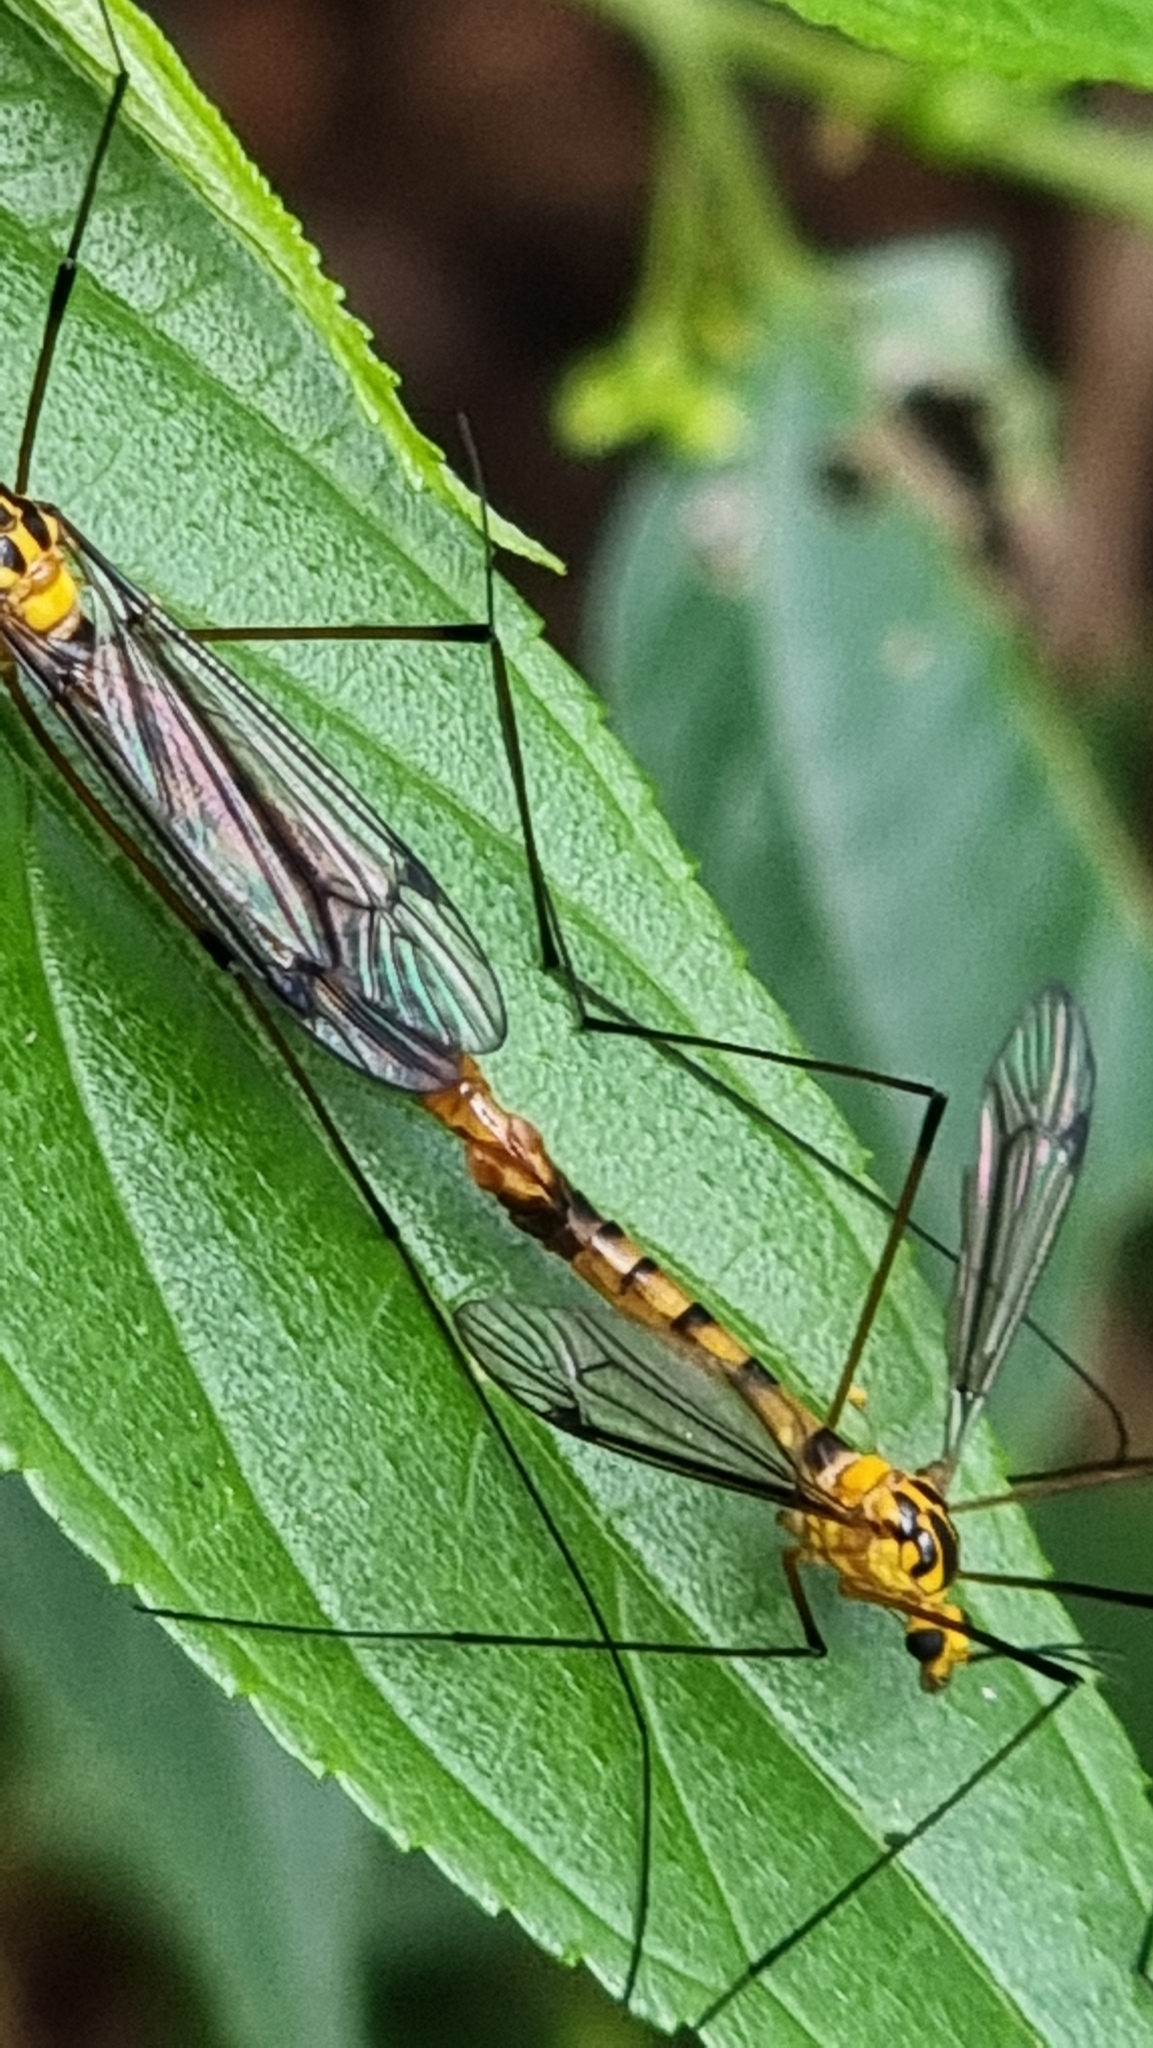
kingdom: Animalia
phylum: Arthropoda
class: Insecta
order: Diptera
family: Tipulidae
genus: Nephrotoma
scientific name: Nephrotoma australasiae
